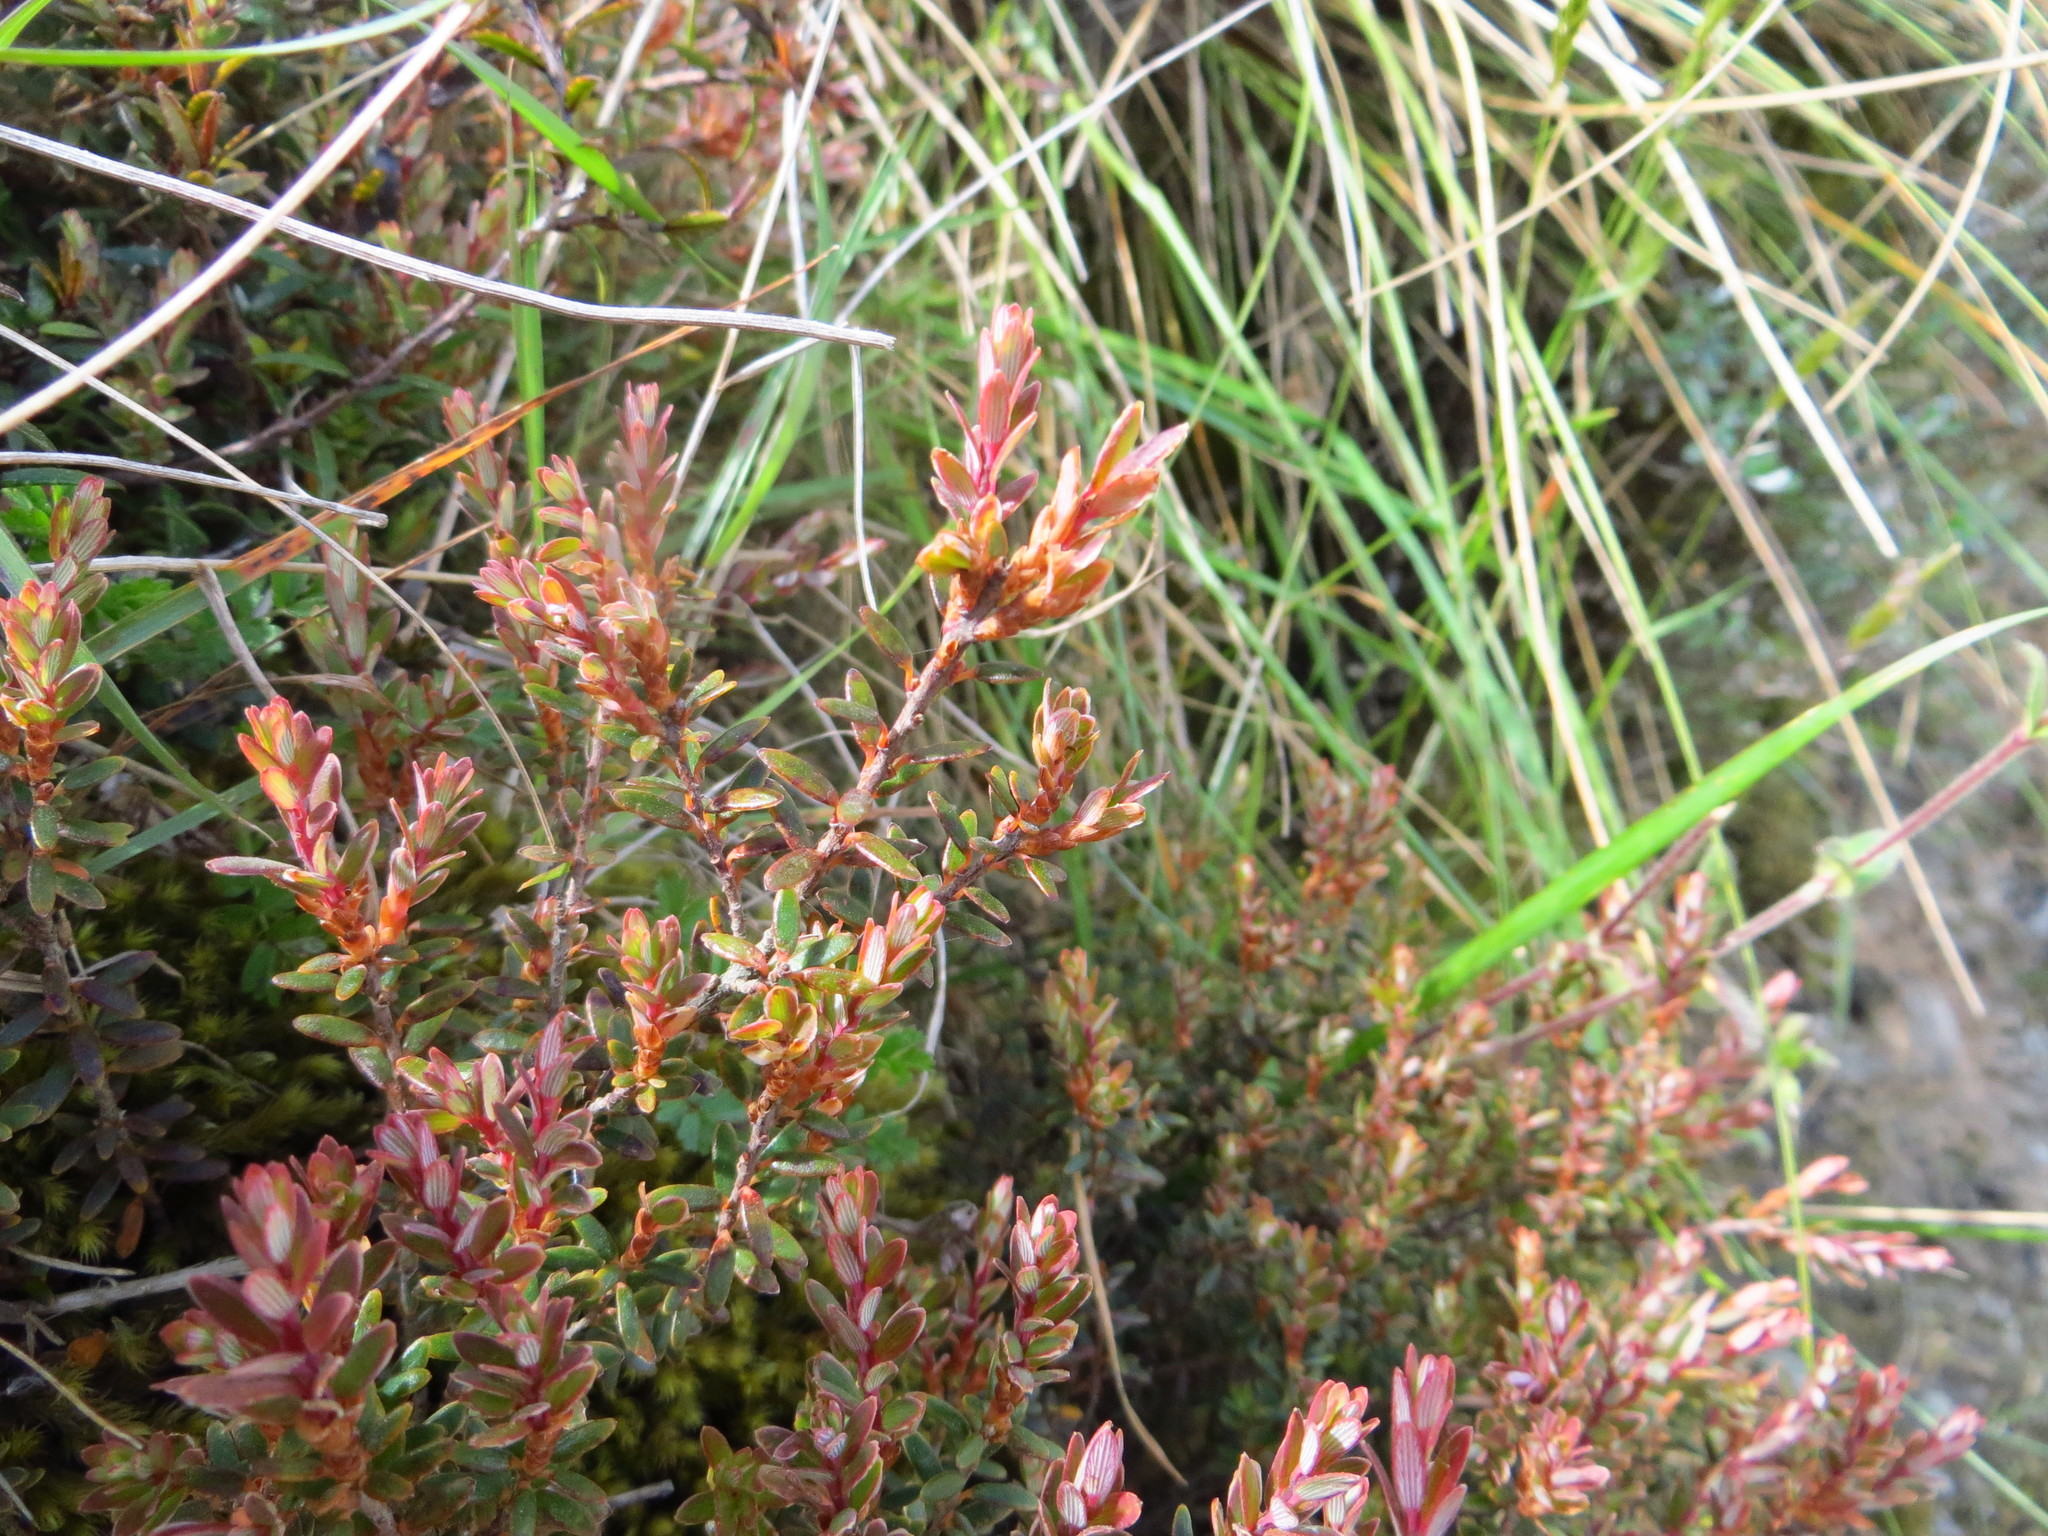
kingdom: Plantae
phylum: Tracheophyta
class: Magnoliopsida
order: Ericales
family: Ericaceae
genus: Acrothamnus
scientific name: Acrothamnus colensoi
